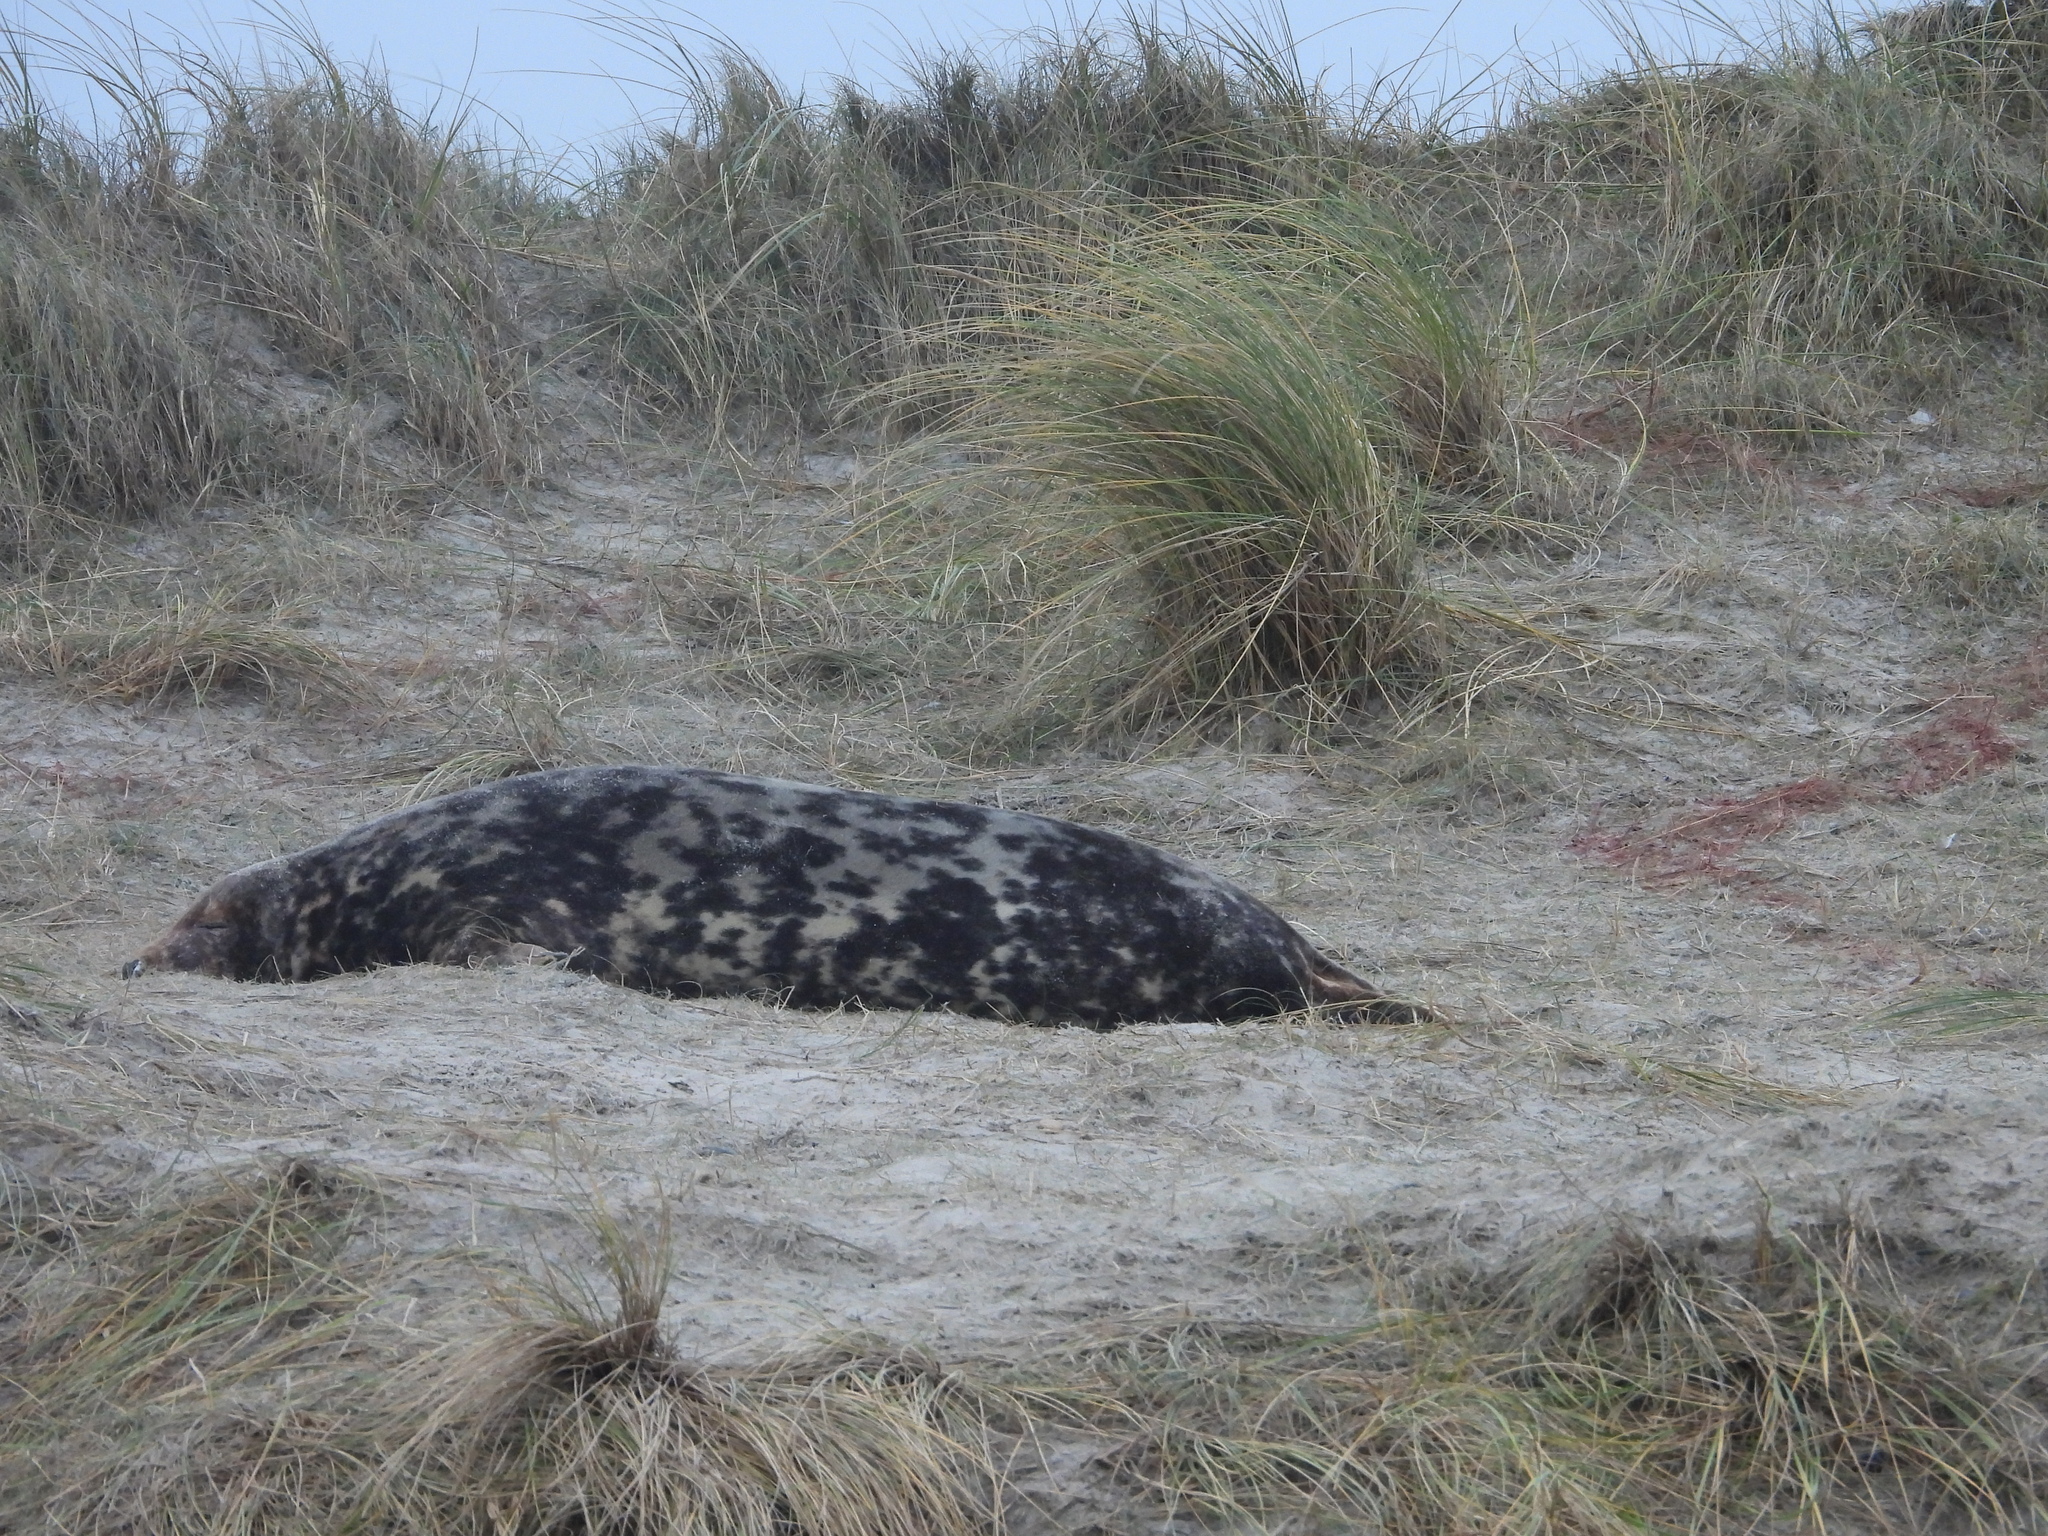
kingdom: Animalia
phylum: Chordata
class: Mammalia
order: Carnivora
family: Phocidae
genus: Halichoerus
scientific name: Halichoerus grypus
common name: Grey seal
